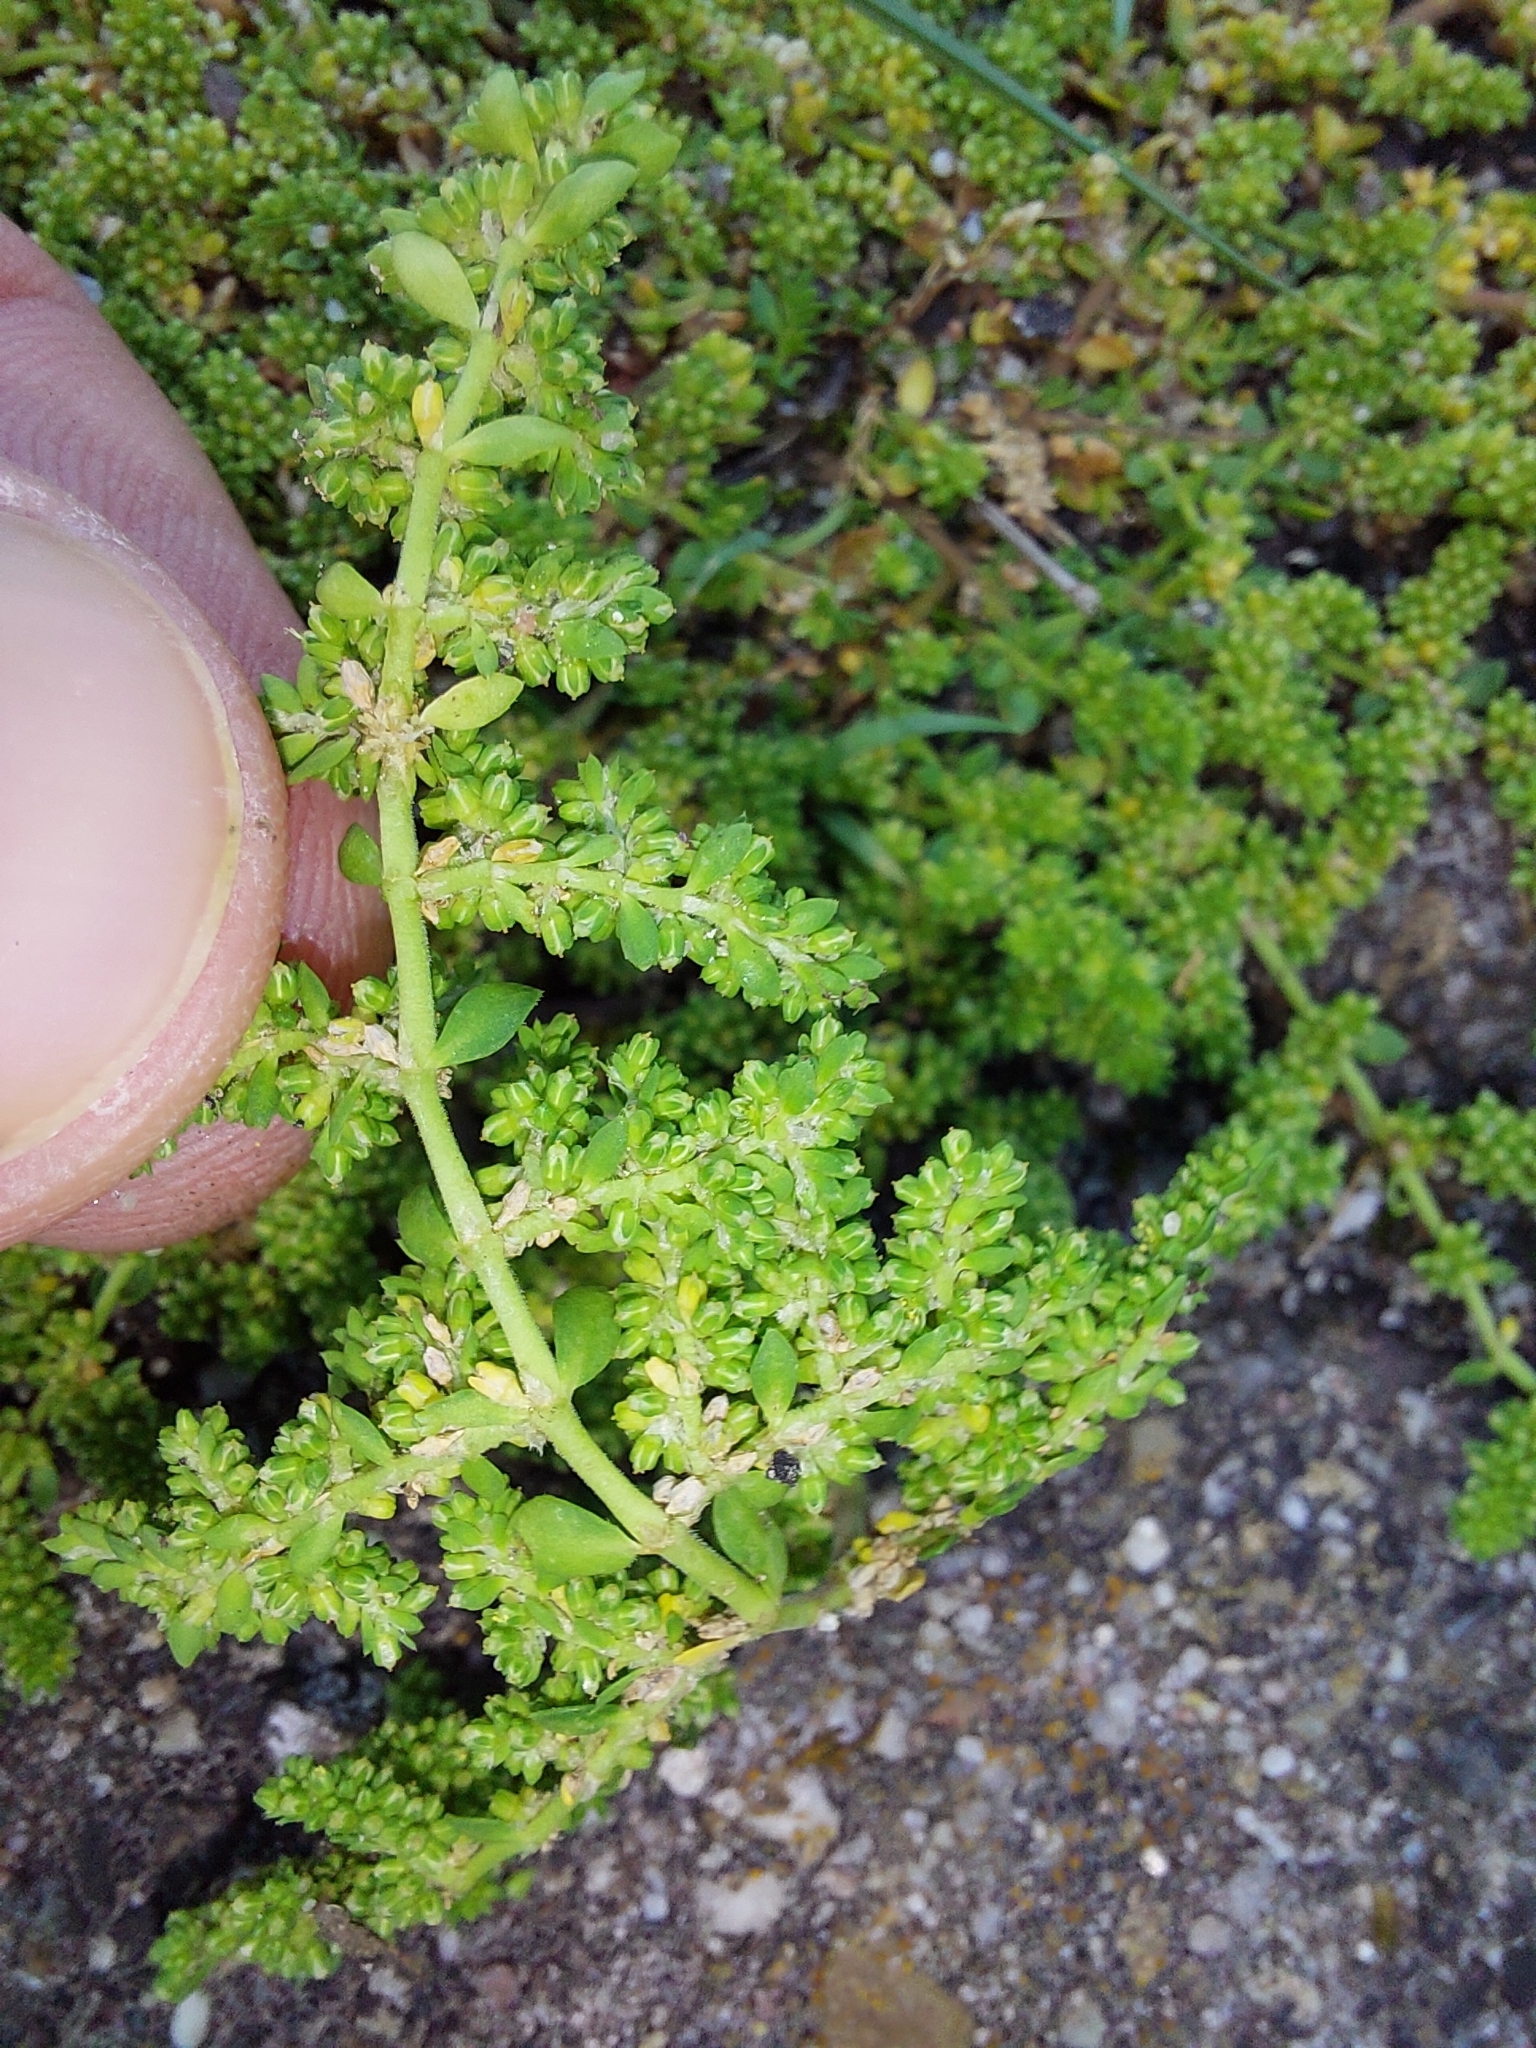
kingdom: Plantae
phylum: Tracheophyta
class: Magnoliopsida
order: Caryophyllales
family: Caryophyllaceae
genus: Herniaria
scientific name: Herniaria glabra
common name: Smooth rupturewort
